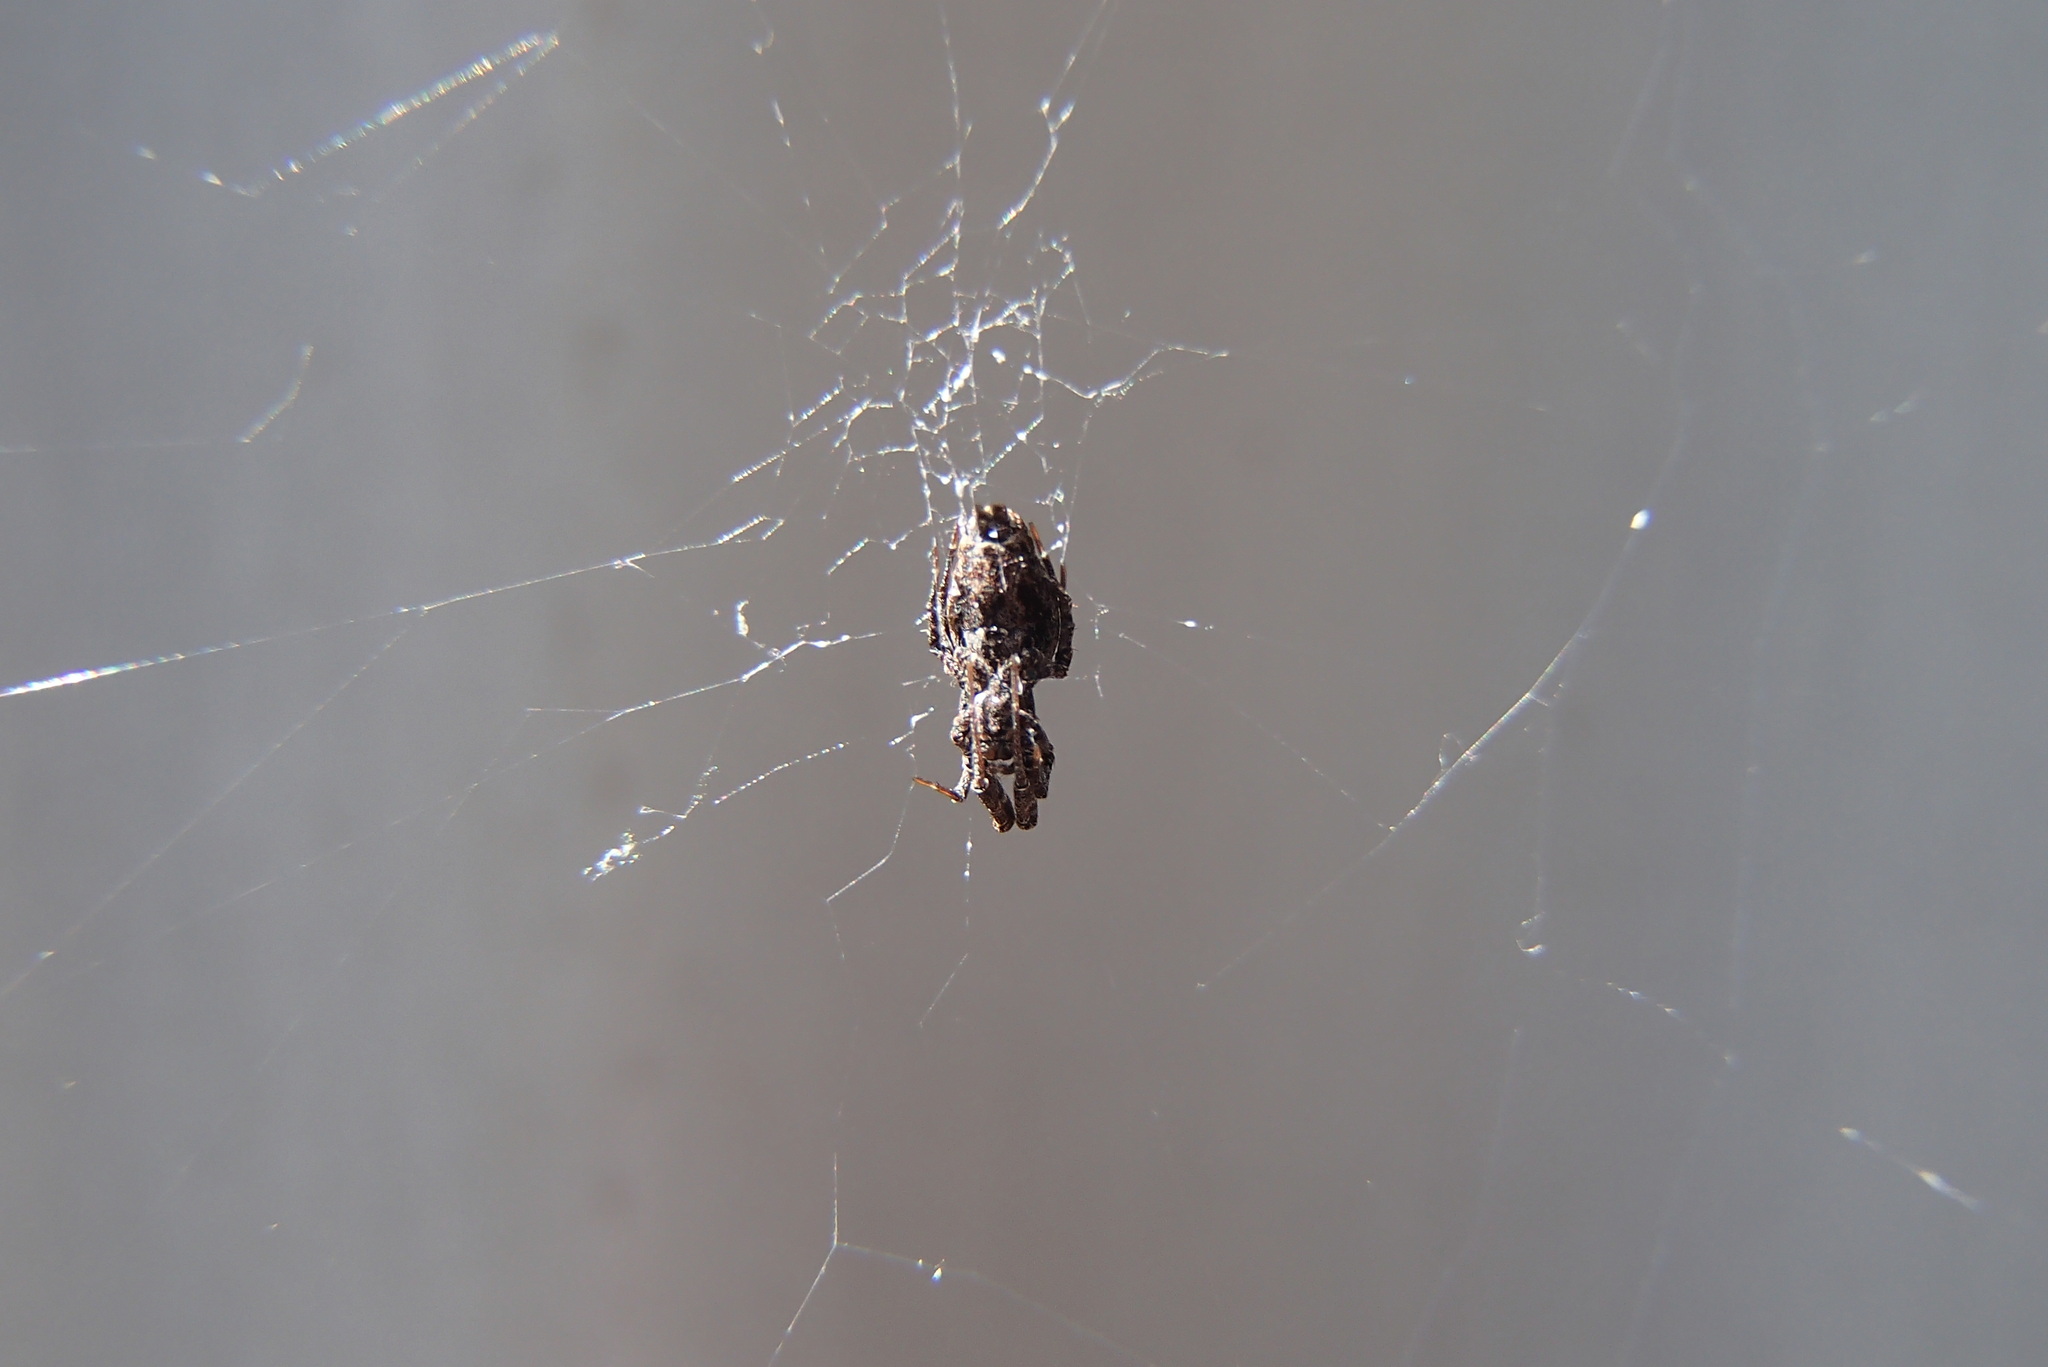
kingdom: Animalia
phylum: Arthropoda
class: Arachnida
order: Araneae
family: Uloboridae
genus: Philoponella
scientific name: Philoponella congregabilis
